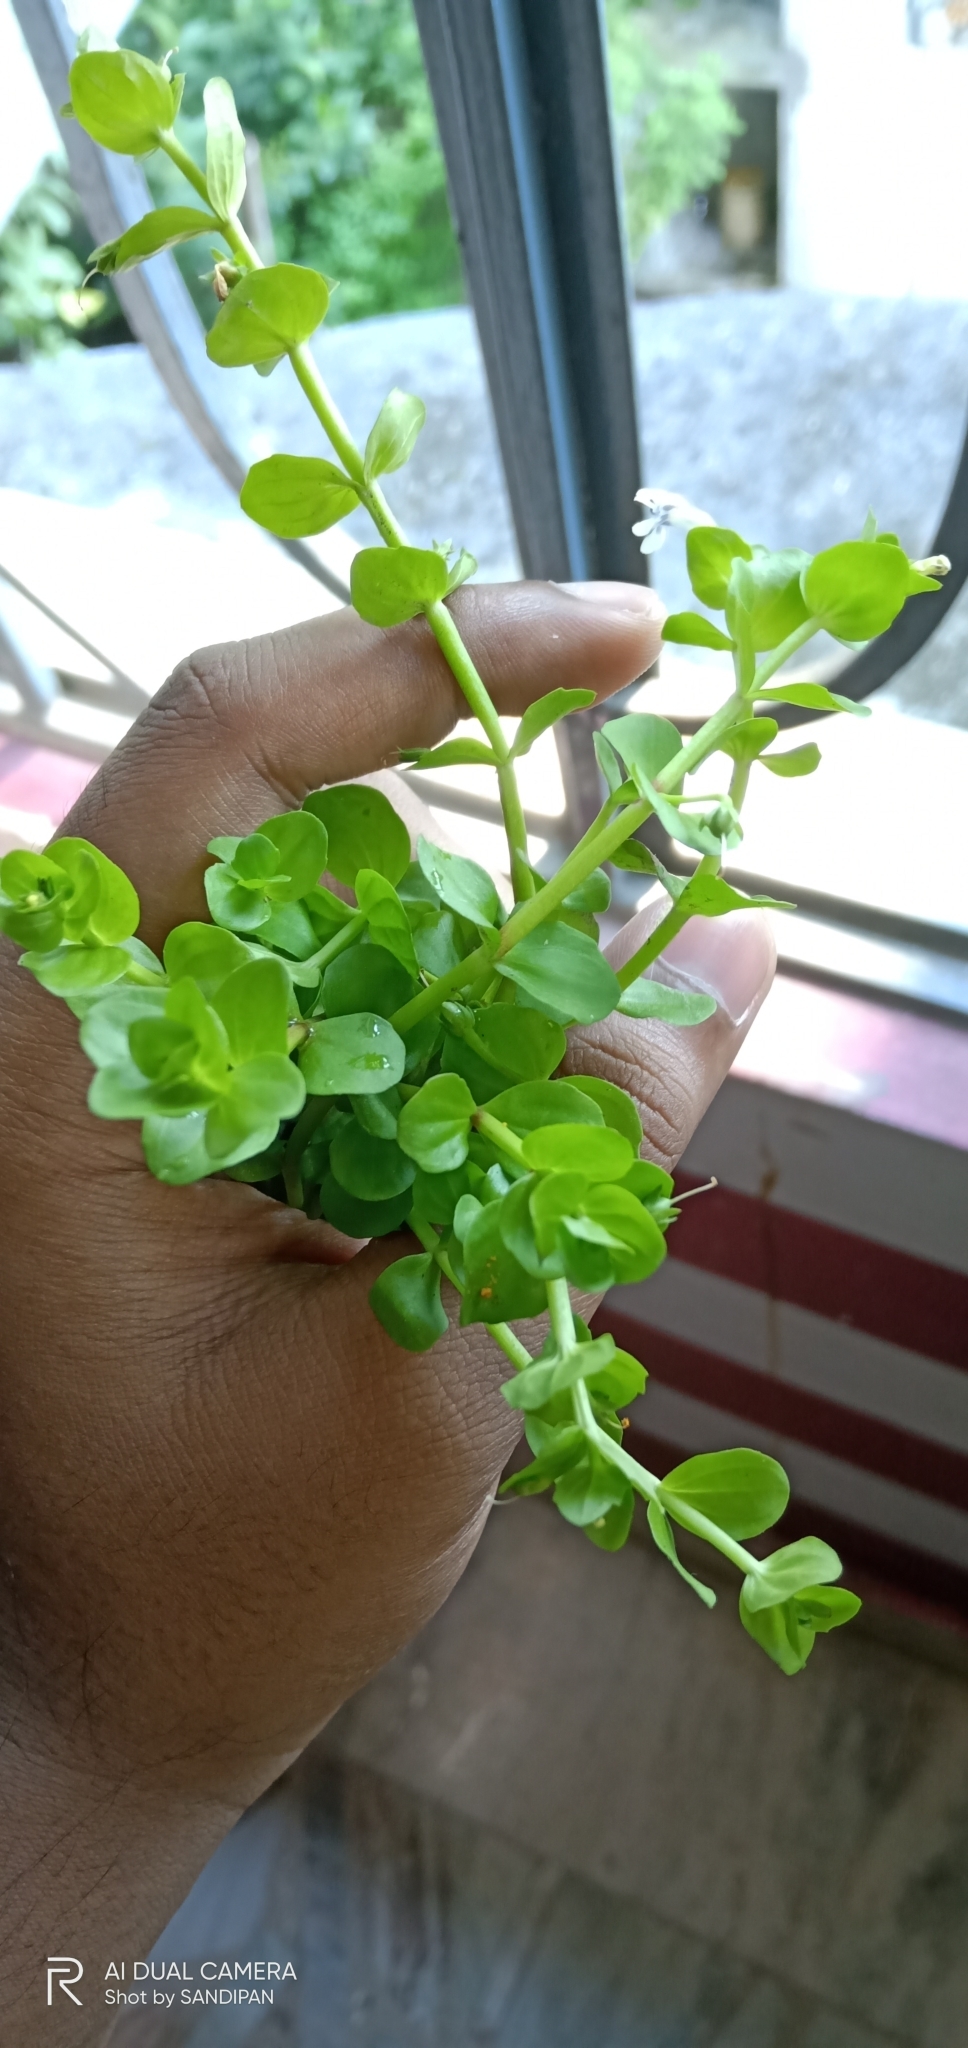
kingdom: Plantae
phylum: Tracheophyta
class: Magnoliopsida
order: Lamiales
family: Linderniaceae
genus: Lindernia
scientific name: Lindernia rotundifolia
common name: Baby’s tears
